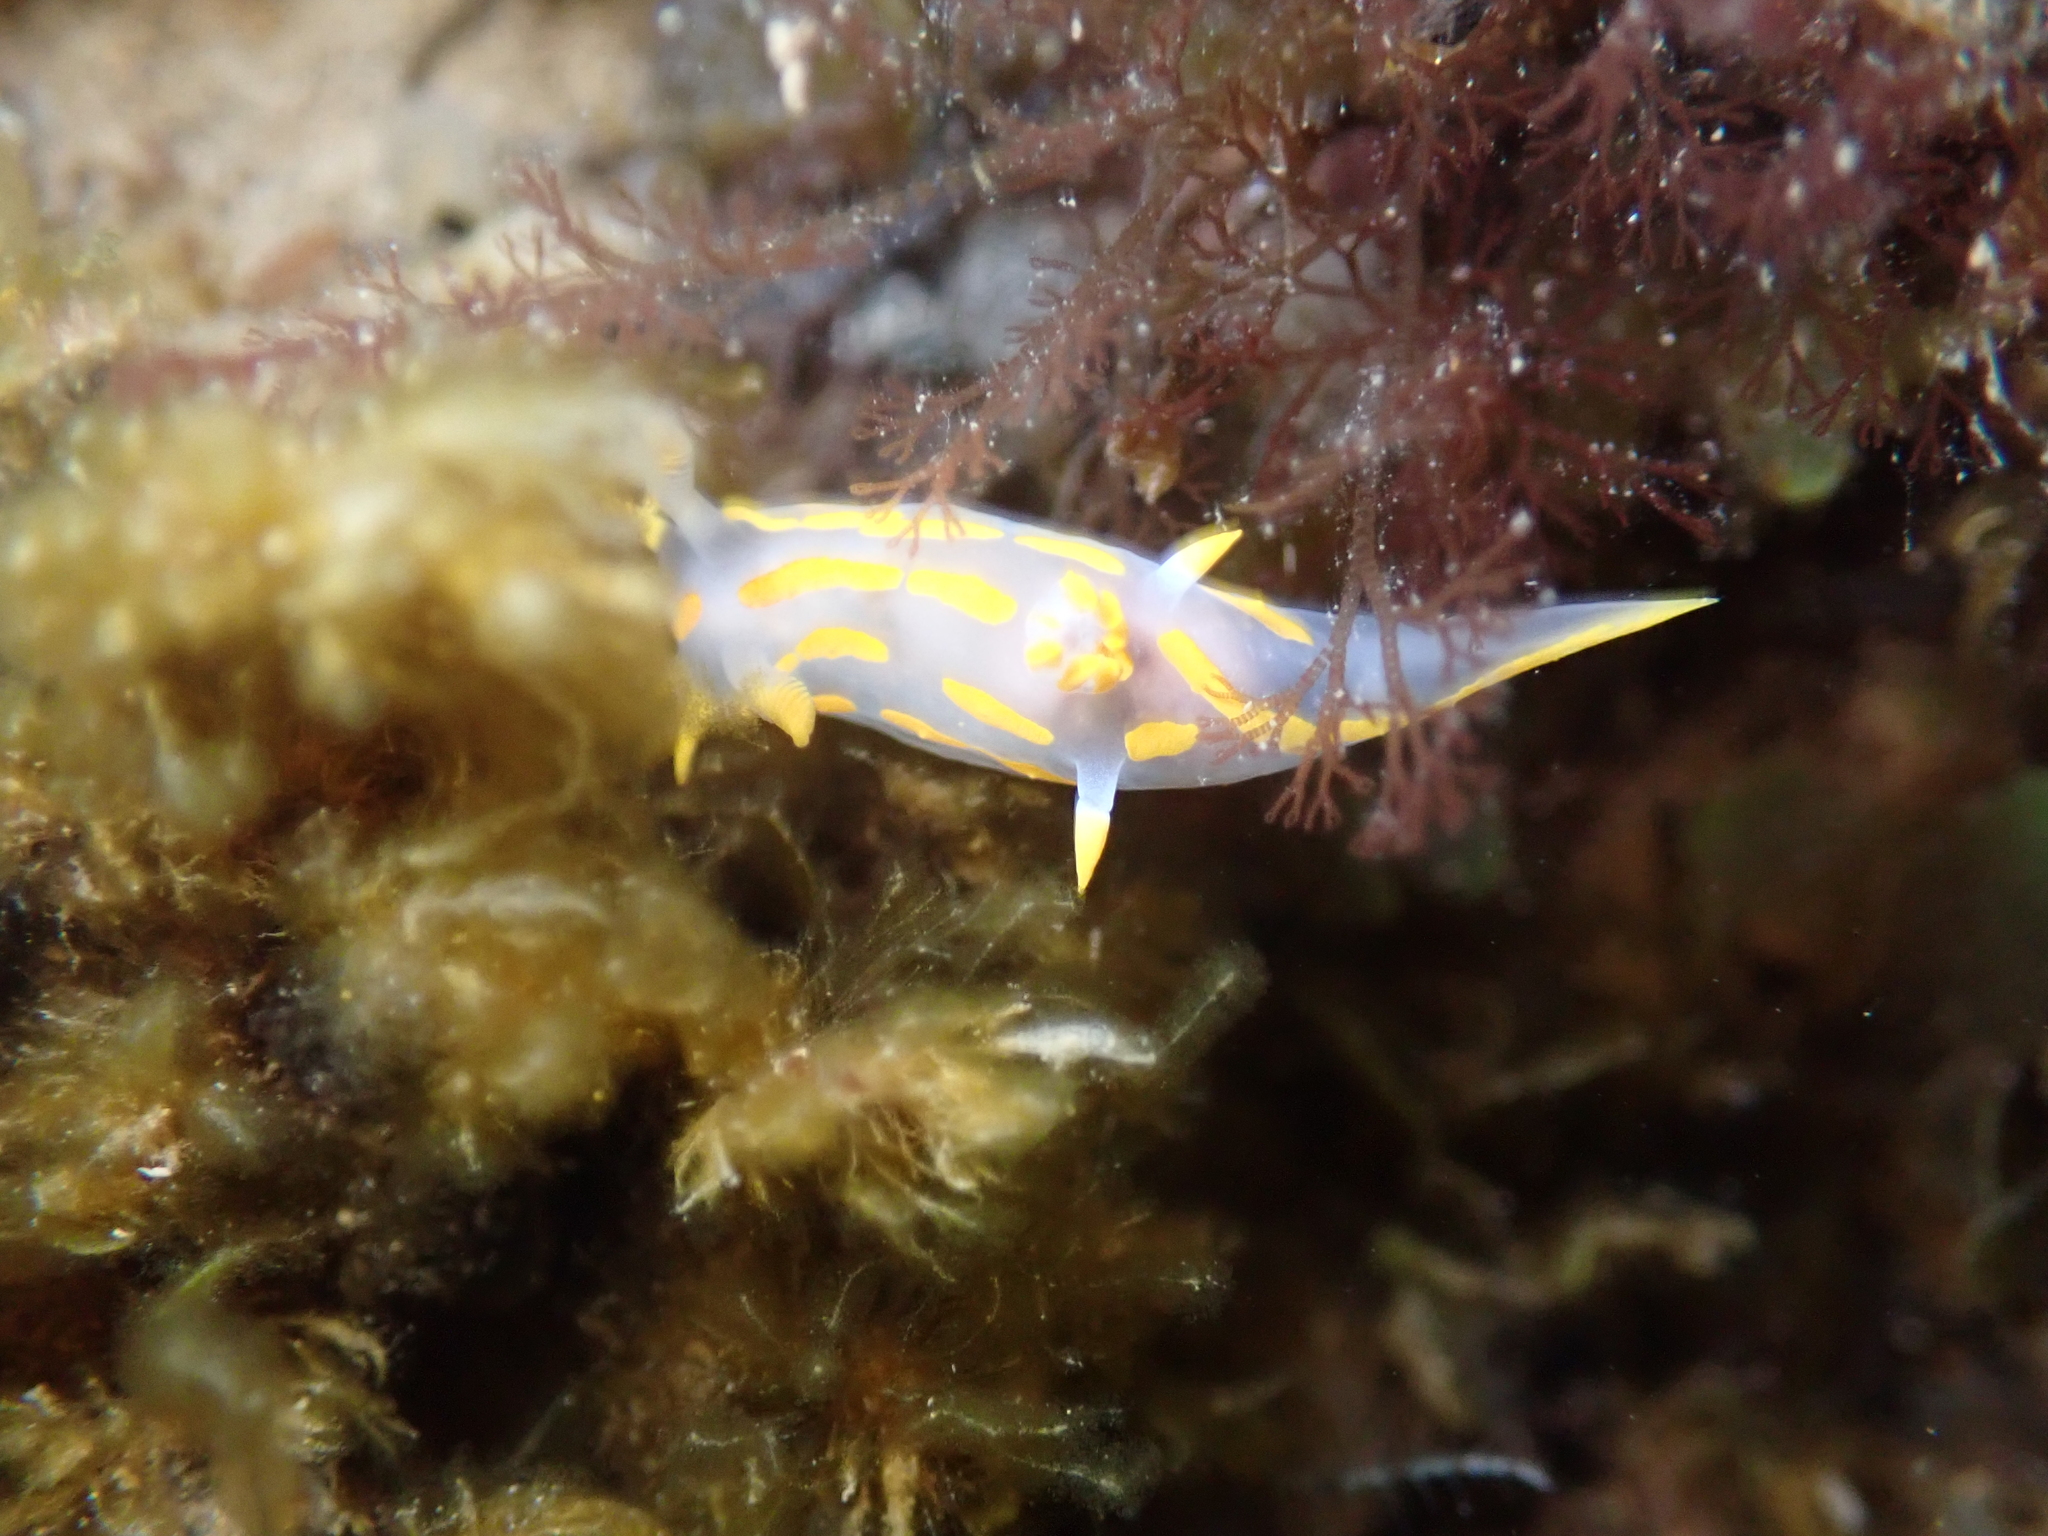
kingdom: Animalia
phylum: Mollusca
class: Gastropoda
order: Nudibranchia
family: Polyceridae
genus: Polycera
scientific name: Polycera quadrilineata
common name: Four-striped polycera
